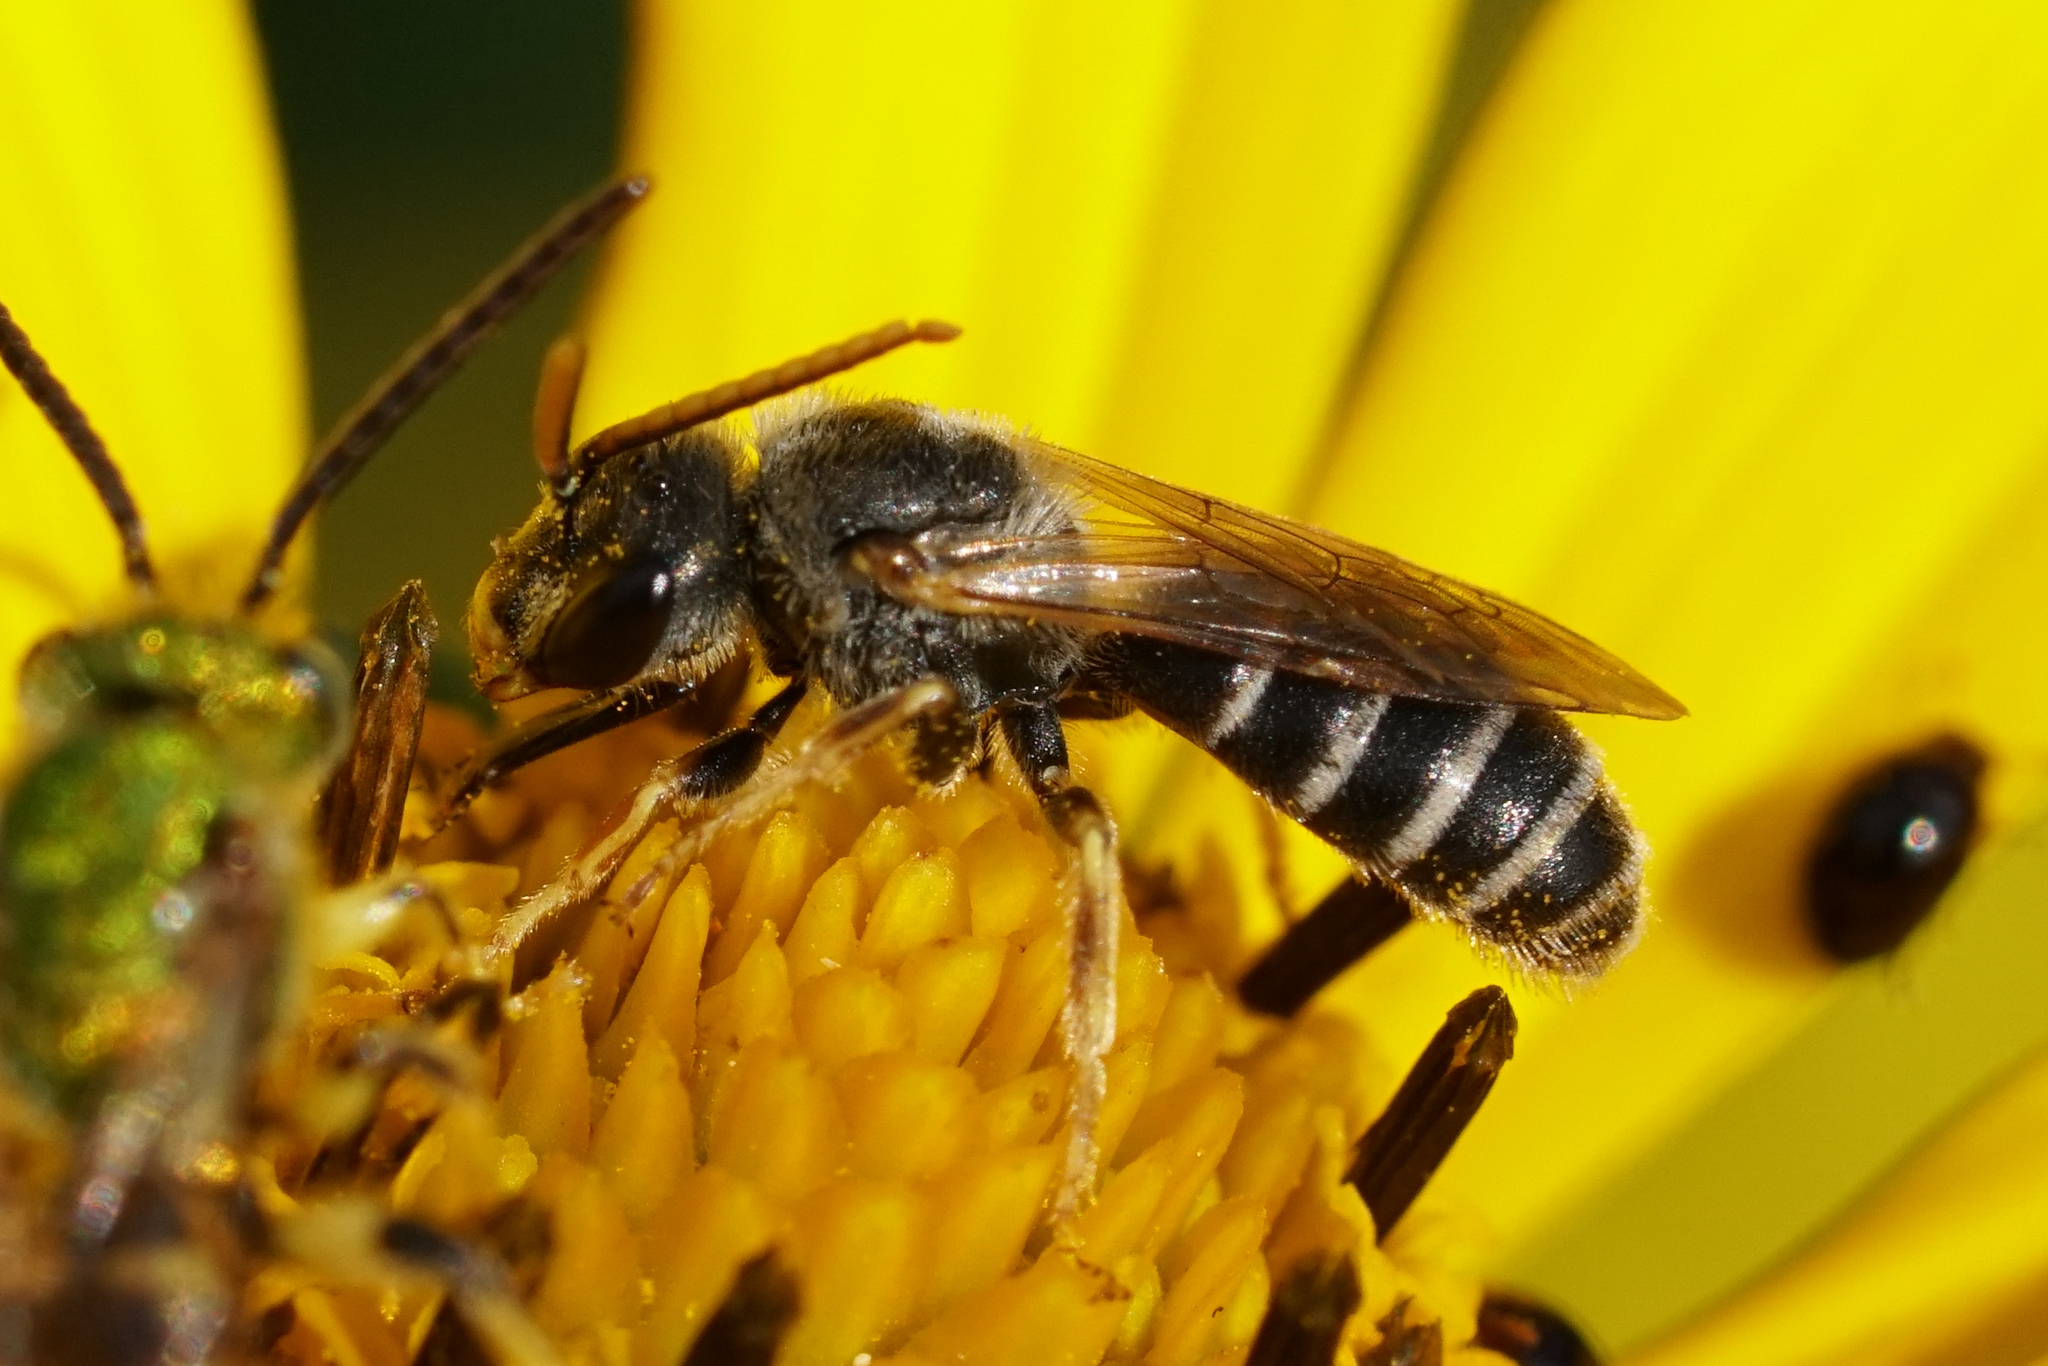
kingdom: Animalia
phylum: Arthropoda
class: Insecta
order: Hymenoptera
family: Halictidae
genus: Halictus
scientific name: Halictus ligatus
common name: Ligated furrow bee
